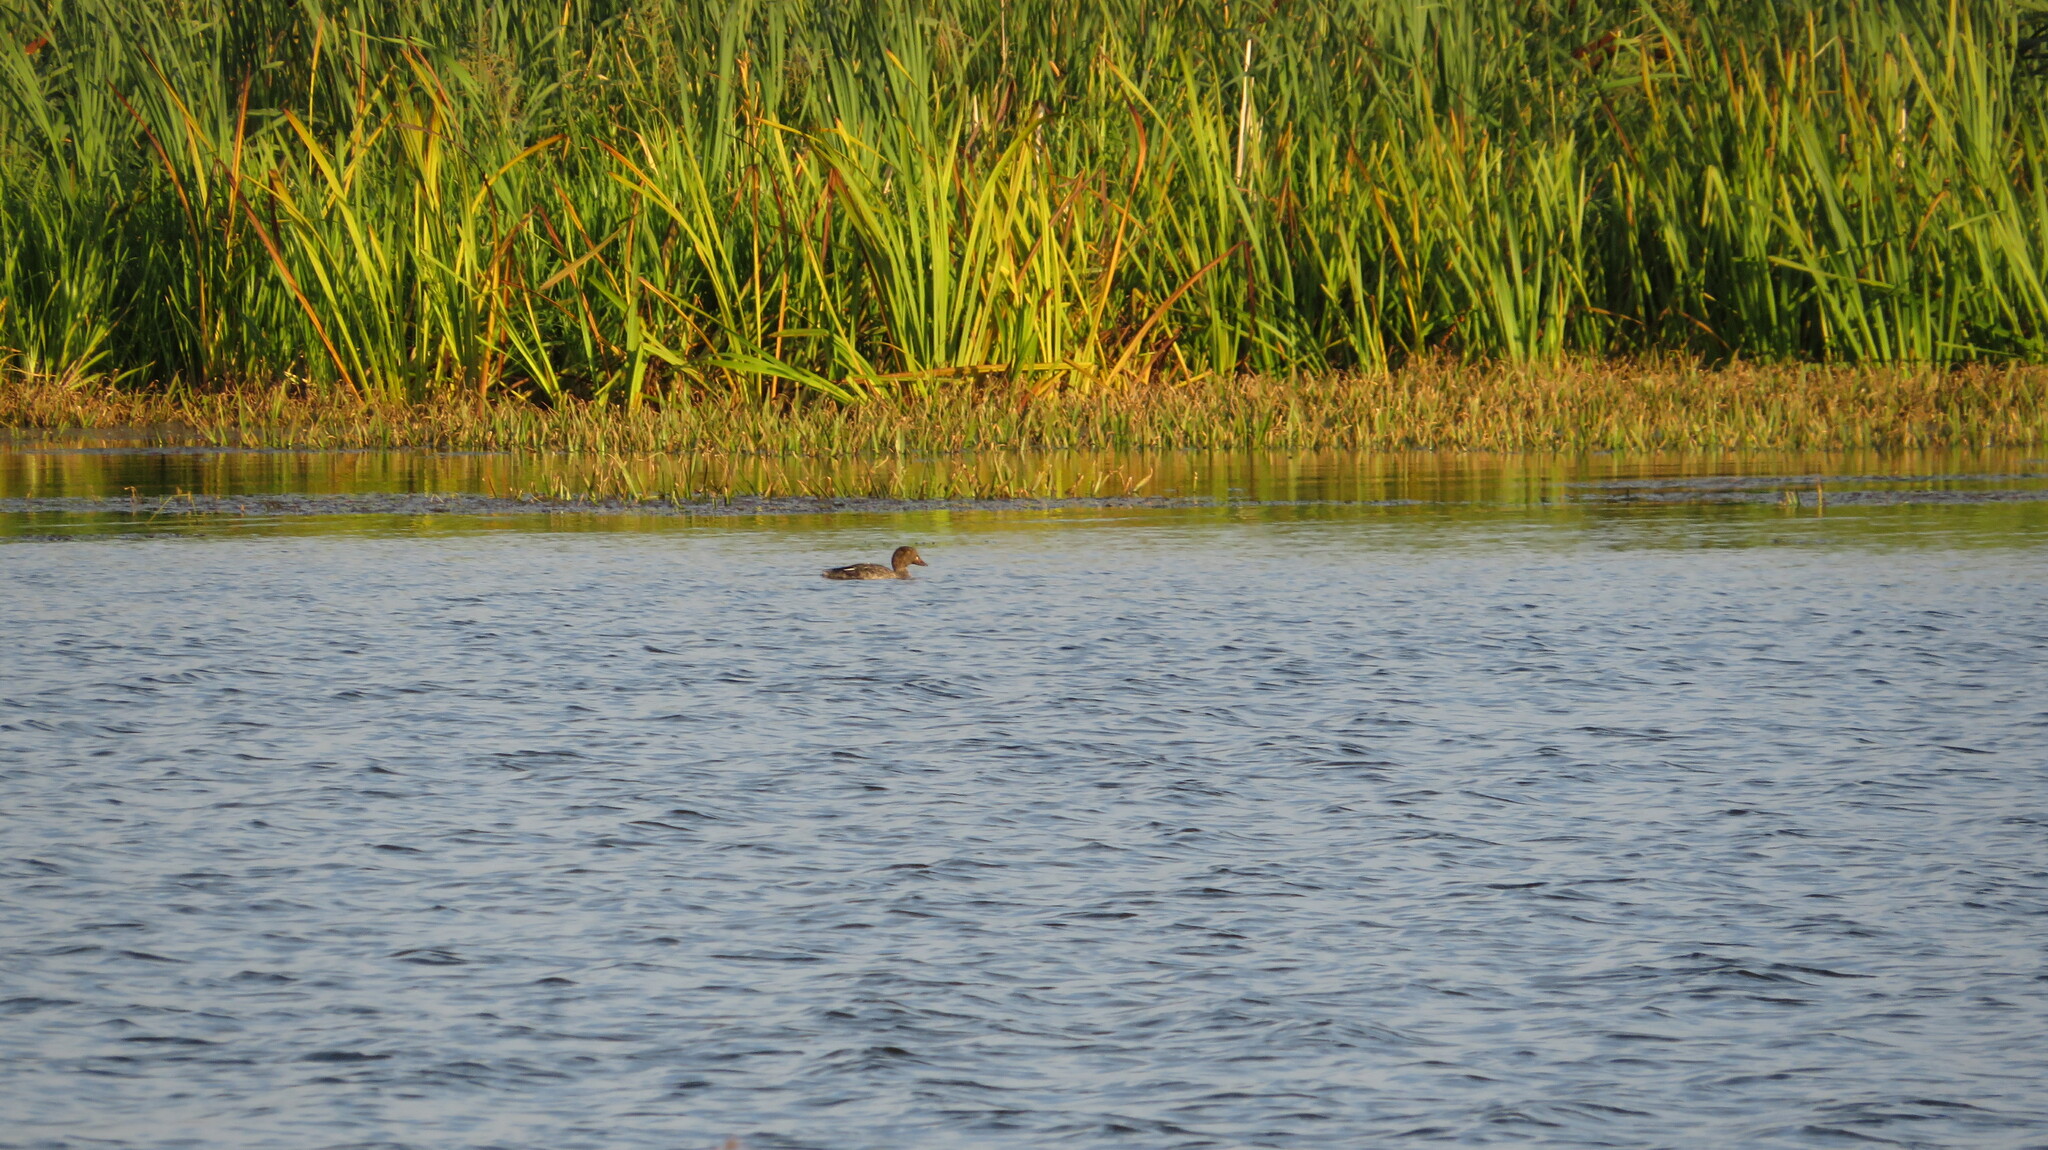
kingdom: Animalia
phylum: Chordata
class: Aves
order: Anseriformes
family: Anatidae
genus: Bucephala
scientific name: Bucephala clangula
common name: Common goldeneye
